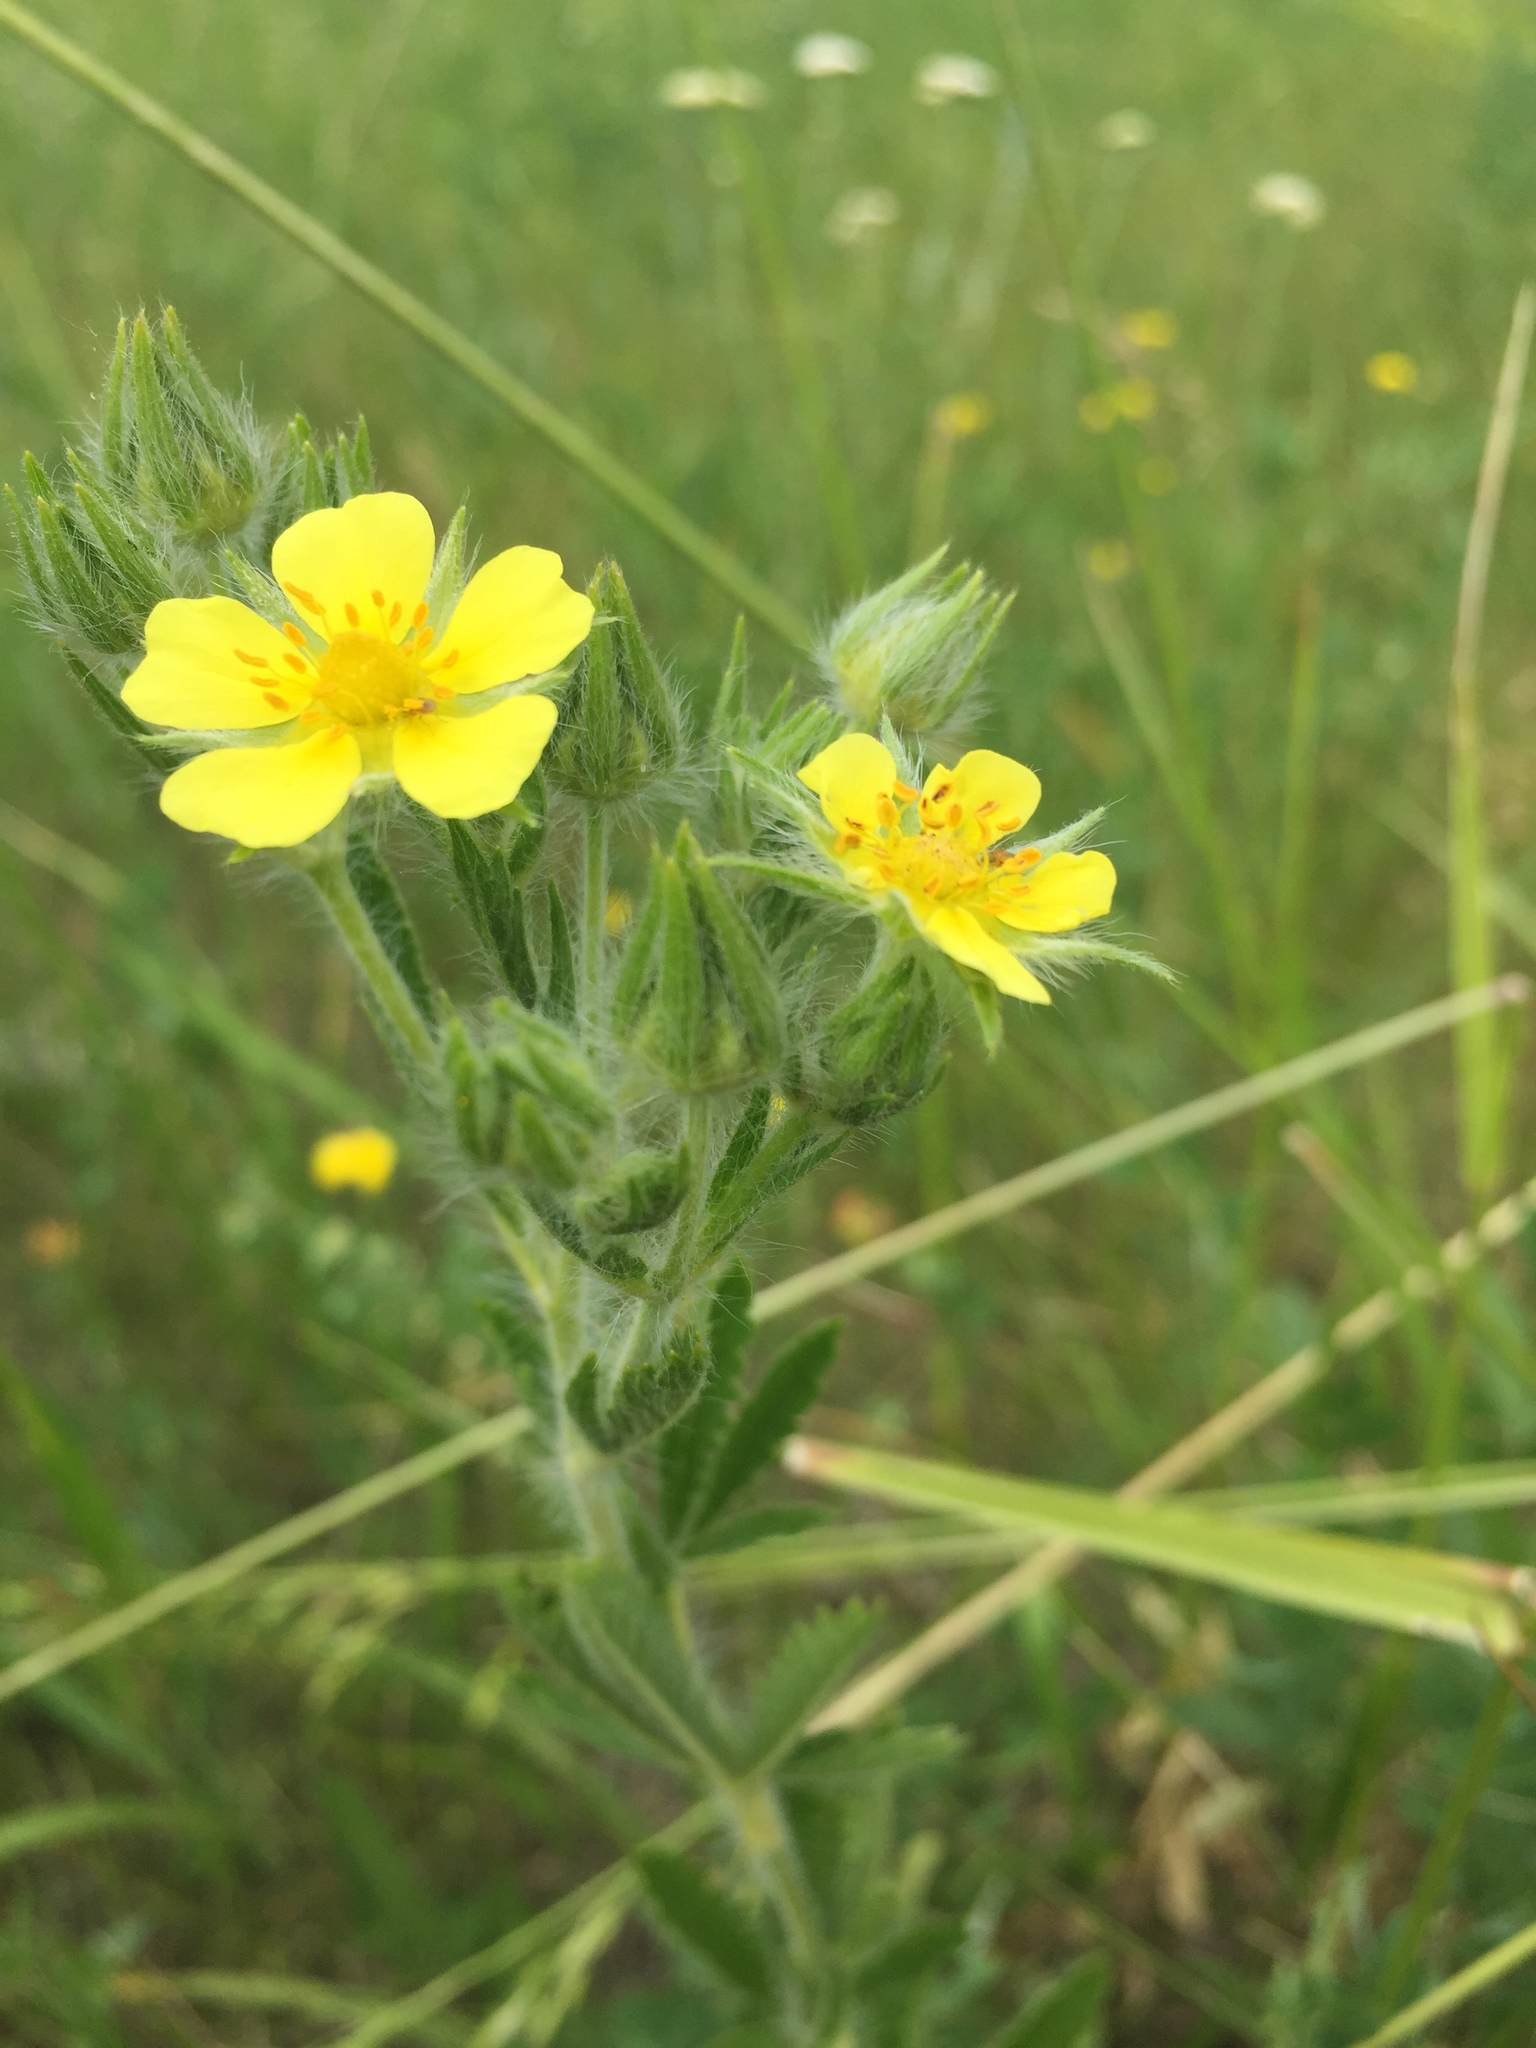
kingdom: Plantae
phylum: Tracheophyta
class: Magnoliopsida
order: Rosales
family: Rosaceae
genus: Potentilla
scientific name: Potentilla recta
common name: Sulphur cinquefoil
